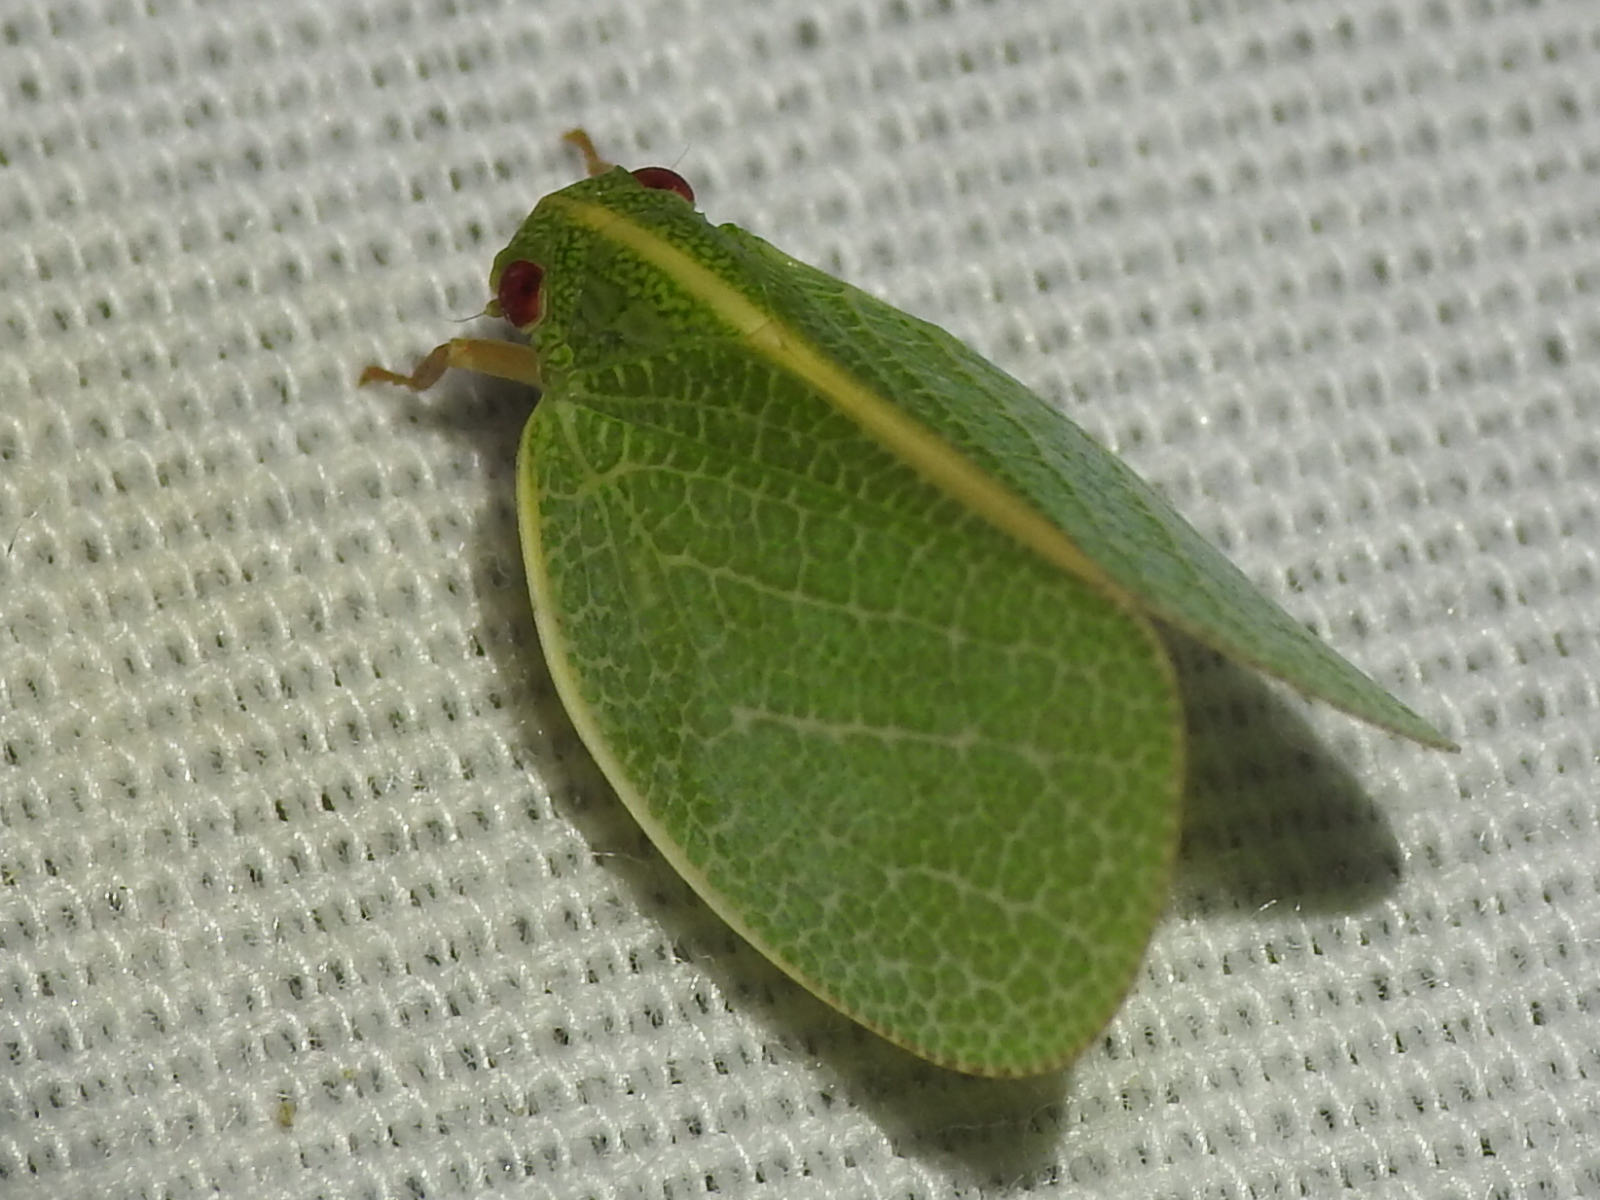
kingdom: Animalia
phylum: Arthropoda
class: Insecta
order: Hemiptera
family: Acanaloniidae
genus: Acanalonia
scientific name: Acanalonia servillei
